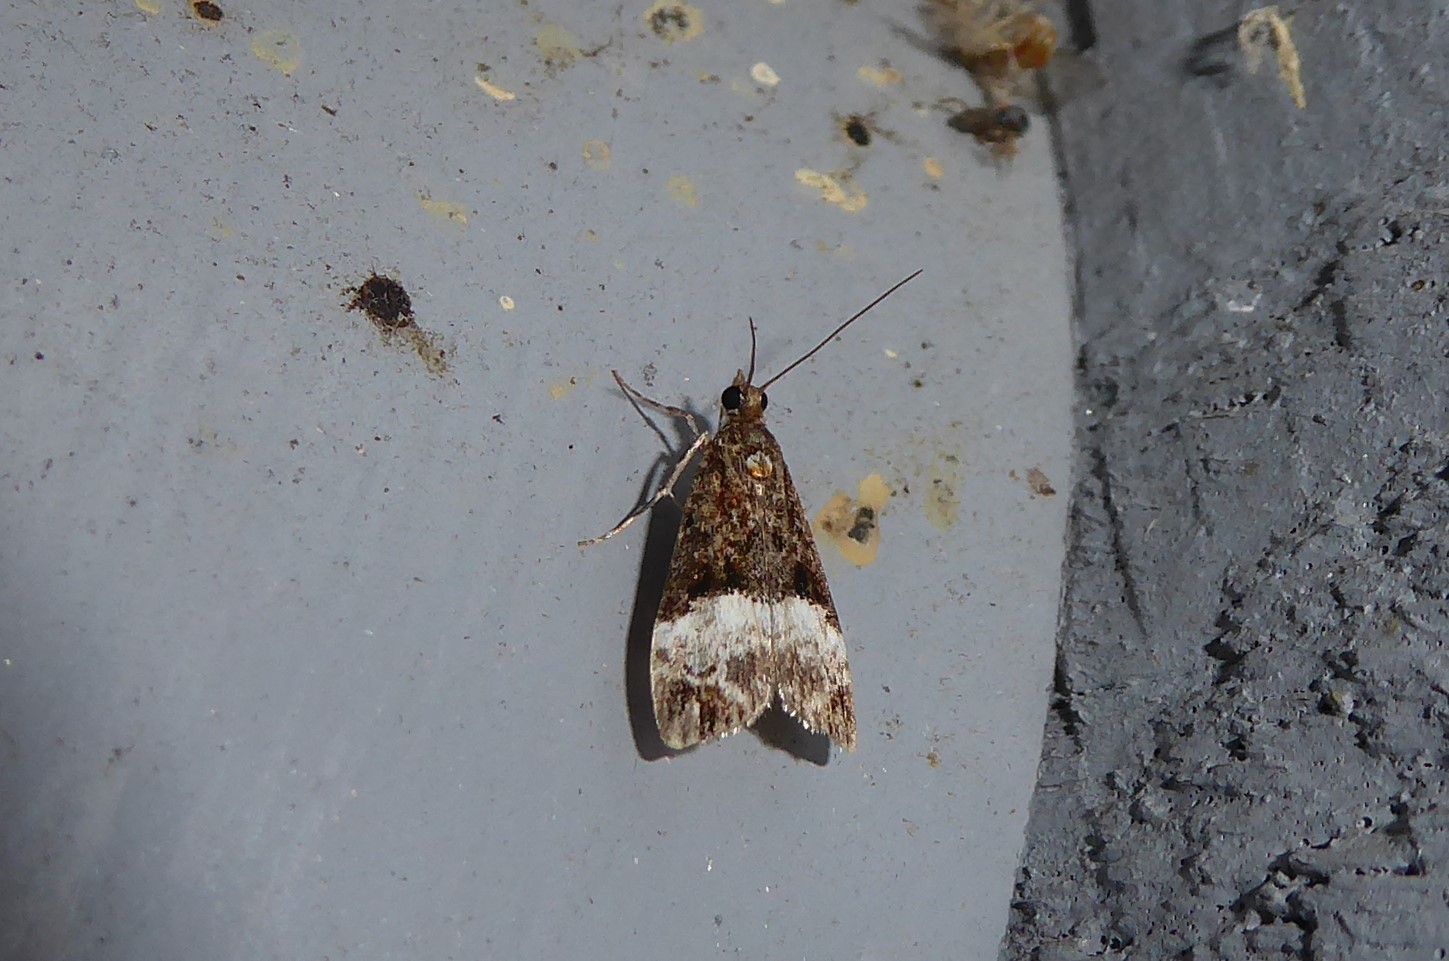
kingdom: Animalia
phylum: Arthropoda
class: Insecta
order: Lepidoptera
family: Crambidae
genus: Scoparia
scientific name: Scoparia minusculalis
